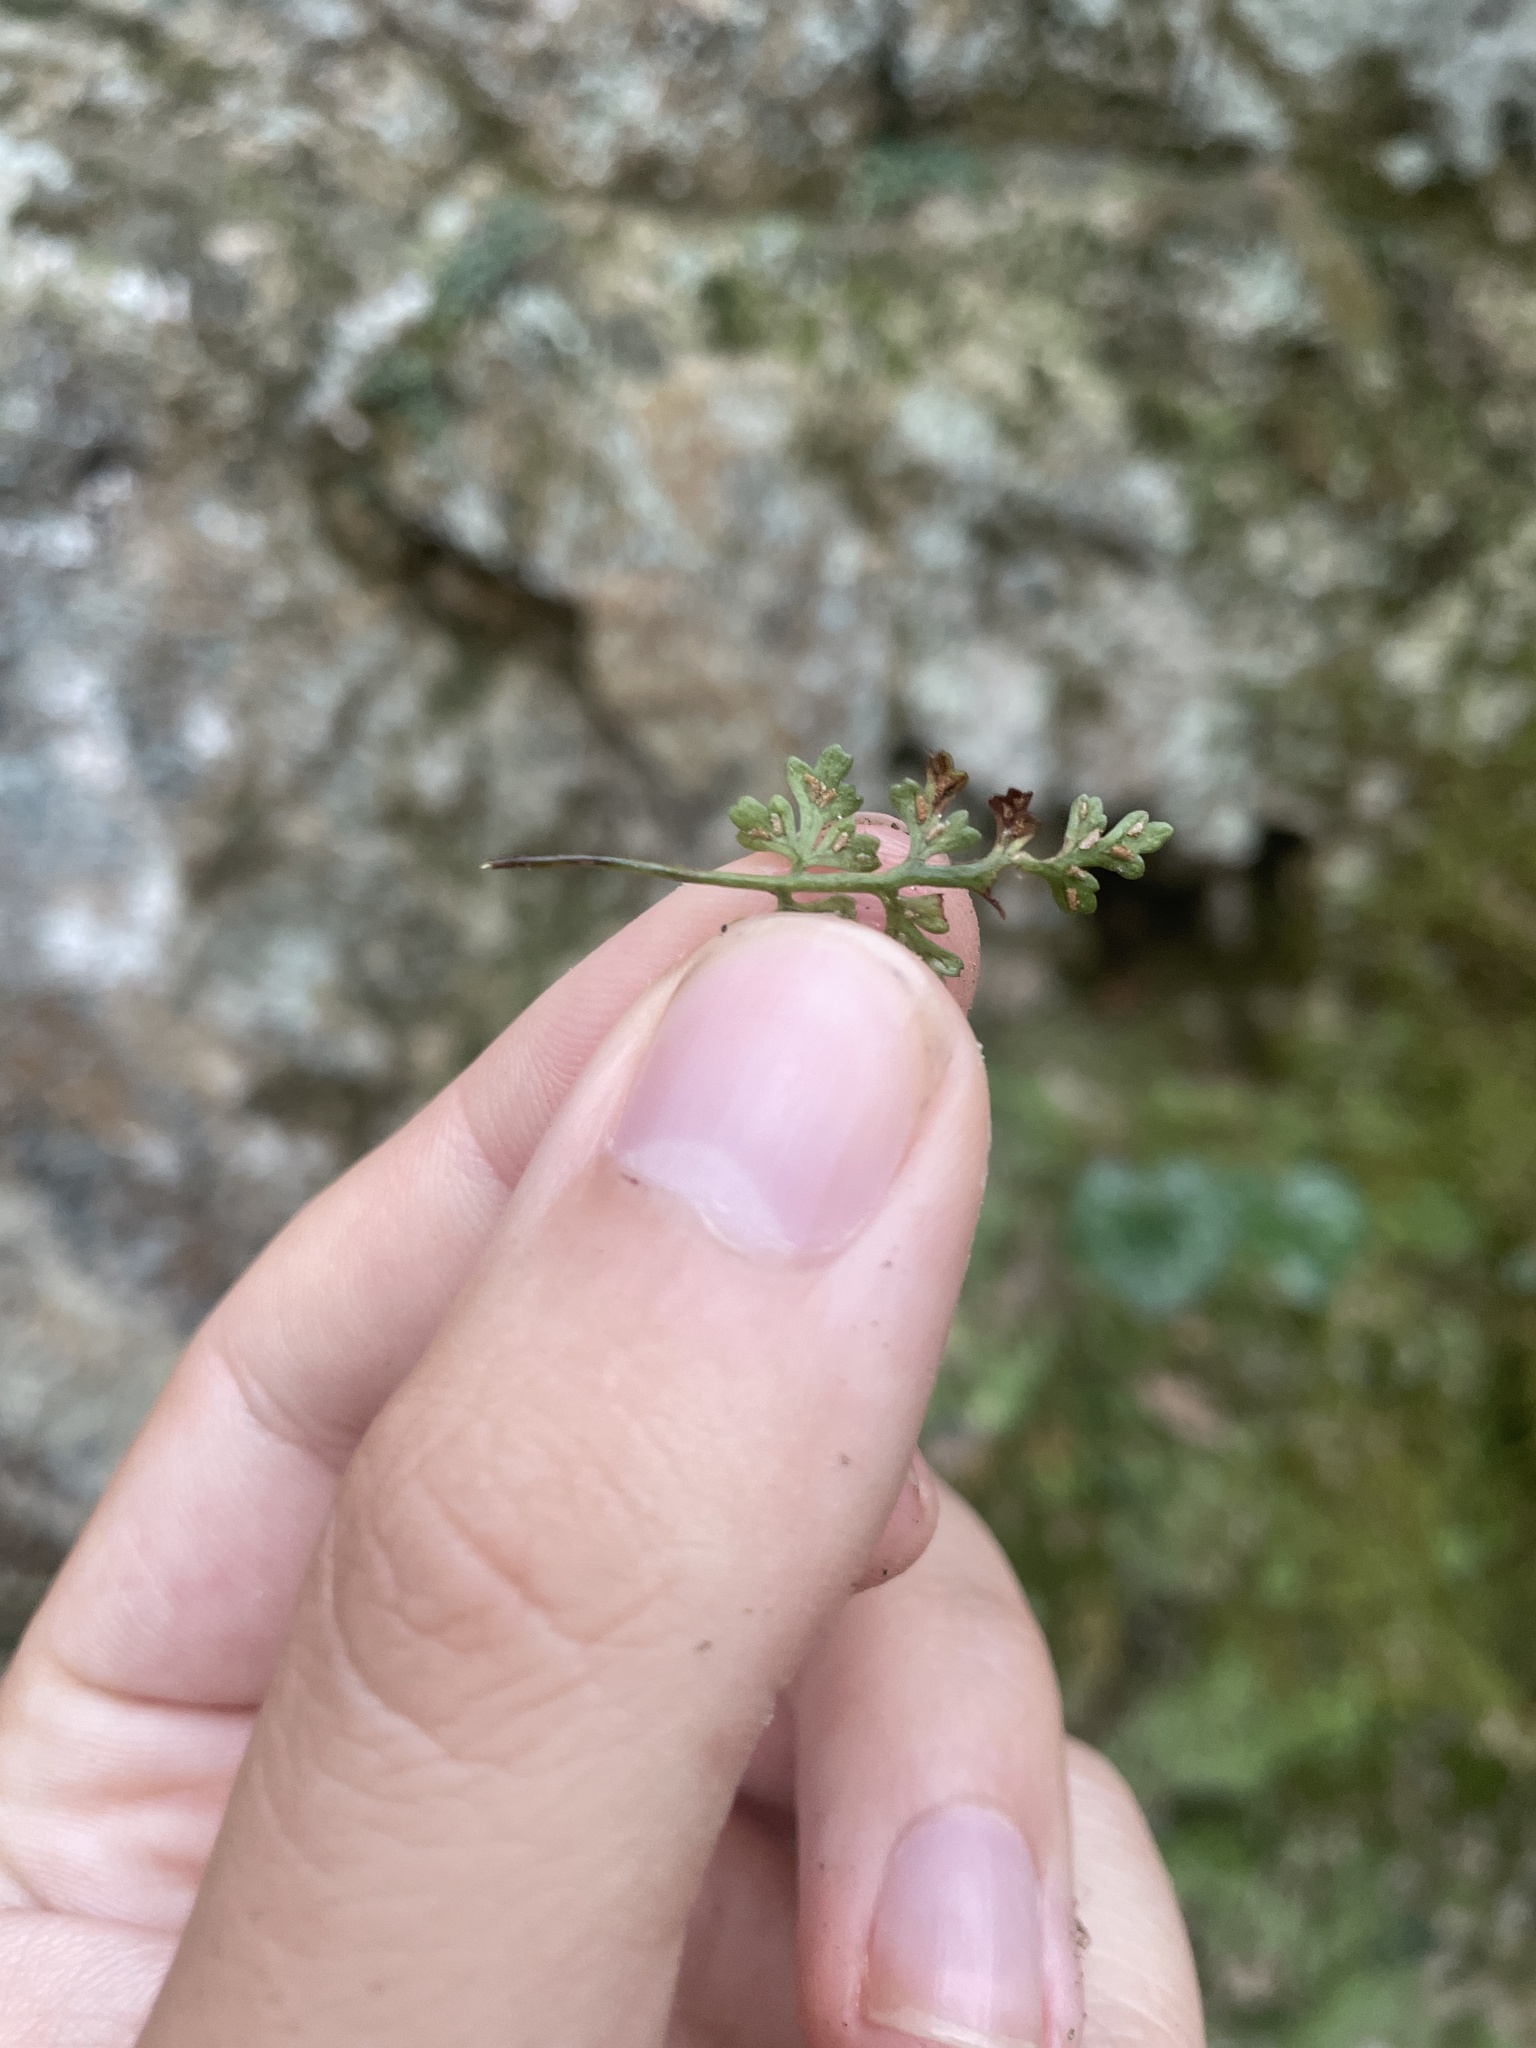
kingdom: Plantae
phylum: Tracheophyta
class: Polypodiopsida
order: Polypodiales
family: Aspleniaceae
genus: Asplenium
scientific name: Asplenium montanum
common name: Mountain spleenwort
